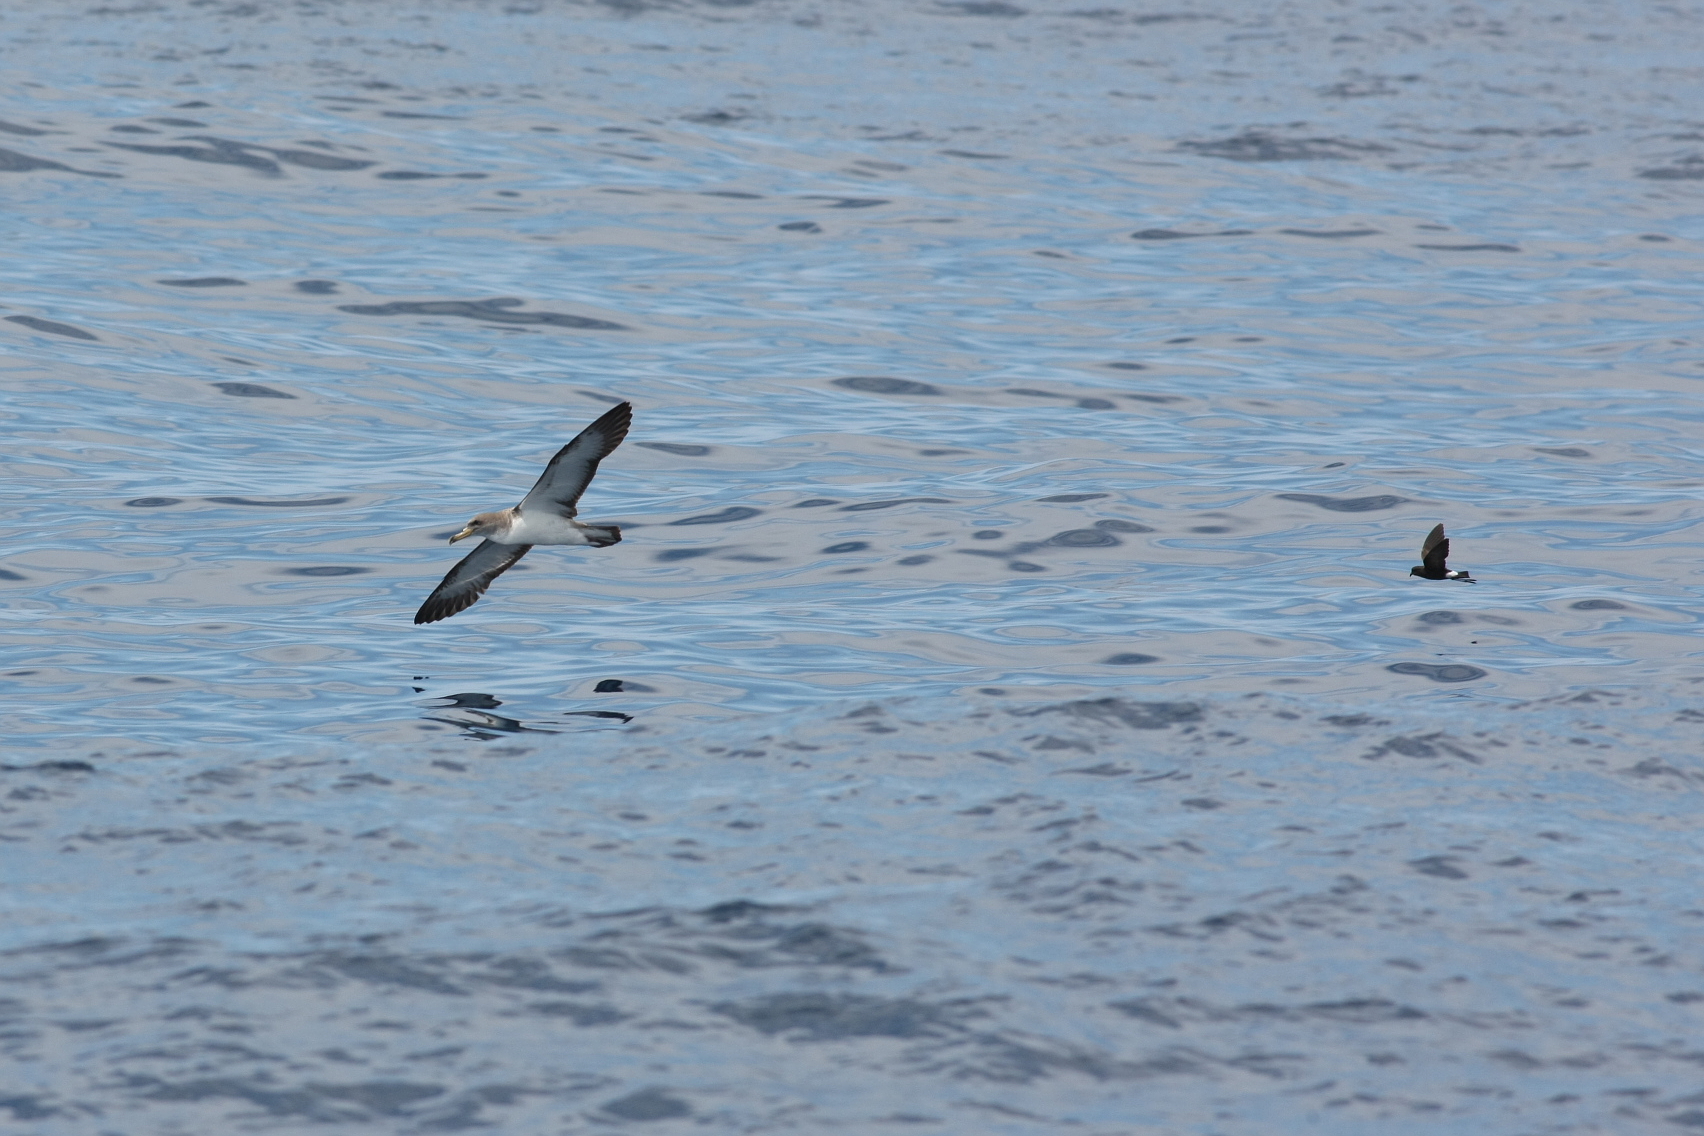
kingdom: Animalia
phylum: Chordata
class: Aves
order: Procellariiformes
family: Procellariidae
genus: Calonectris
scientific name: Calonectris diomedea
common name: Cory's shearwater
